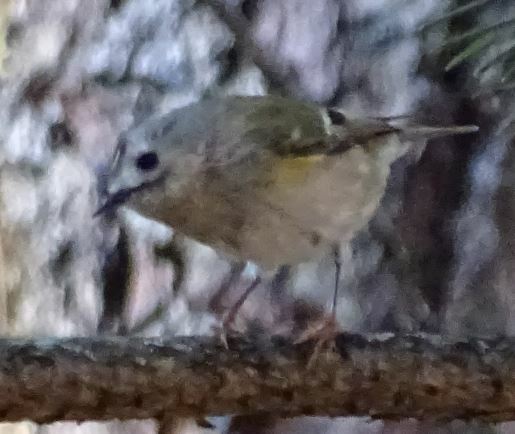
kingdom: Animalia
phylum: Chordata
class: Aves
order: Passeriformes
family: Regulidae
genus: Regulus
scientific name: Regulus regulus
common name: Goldcrest
